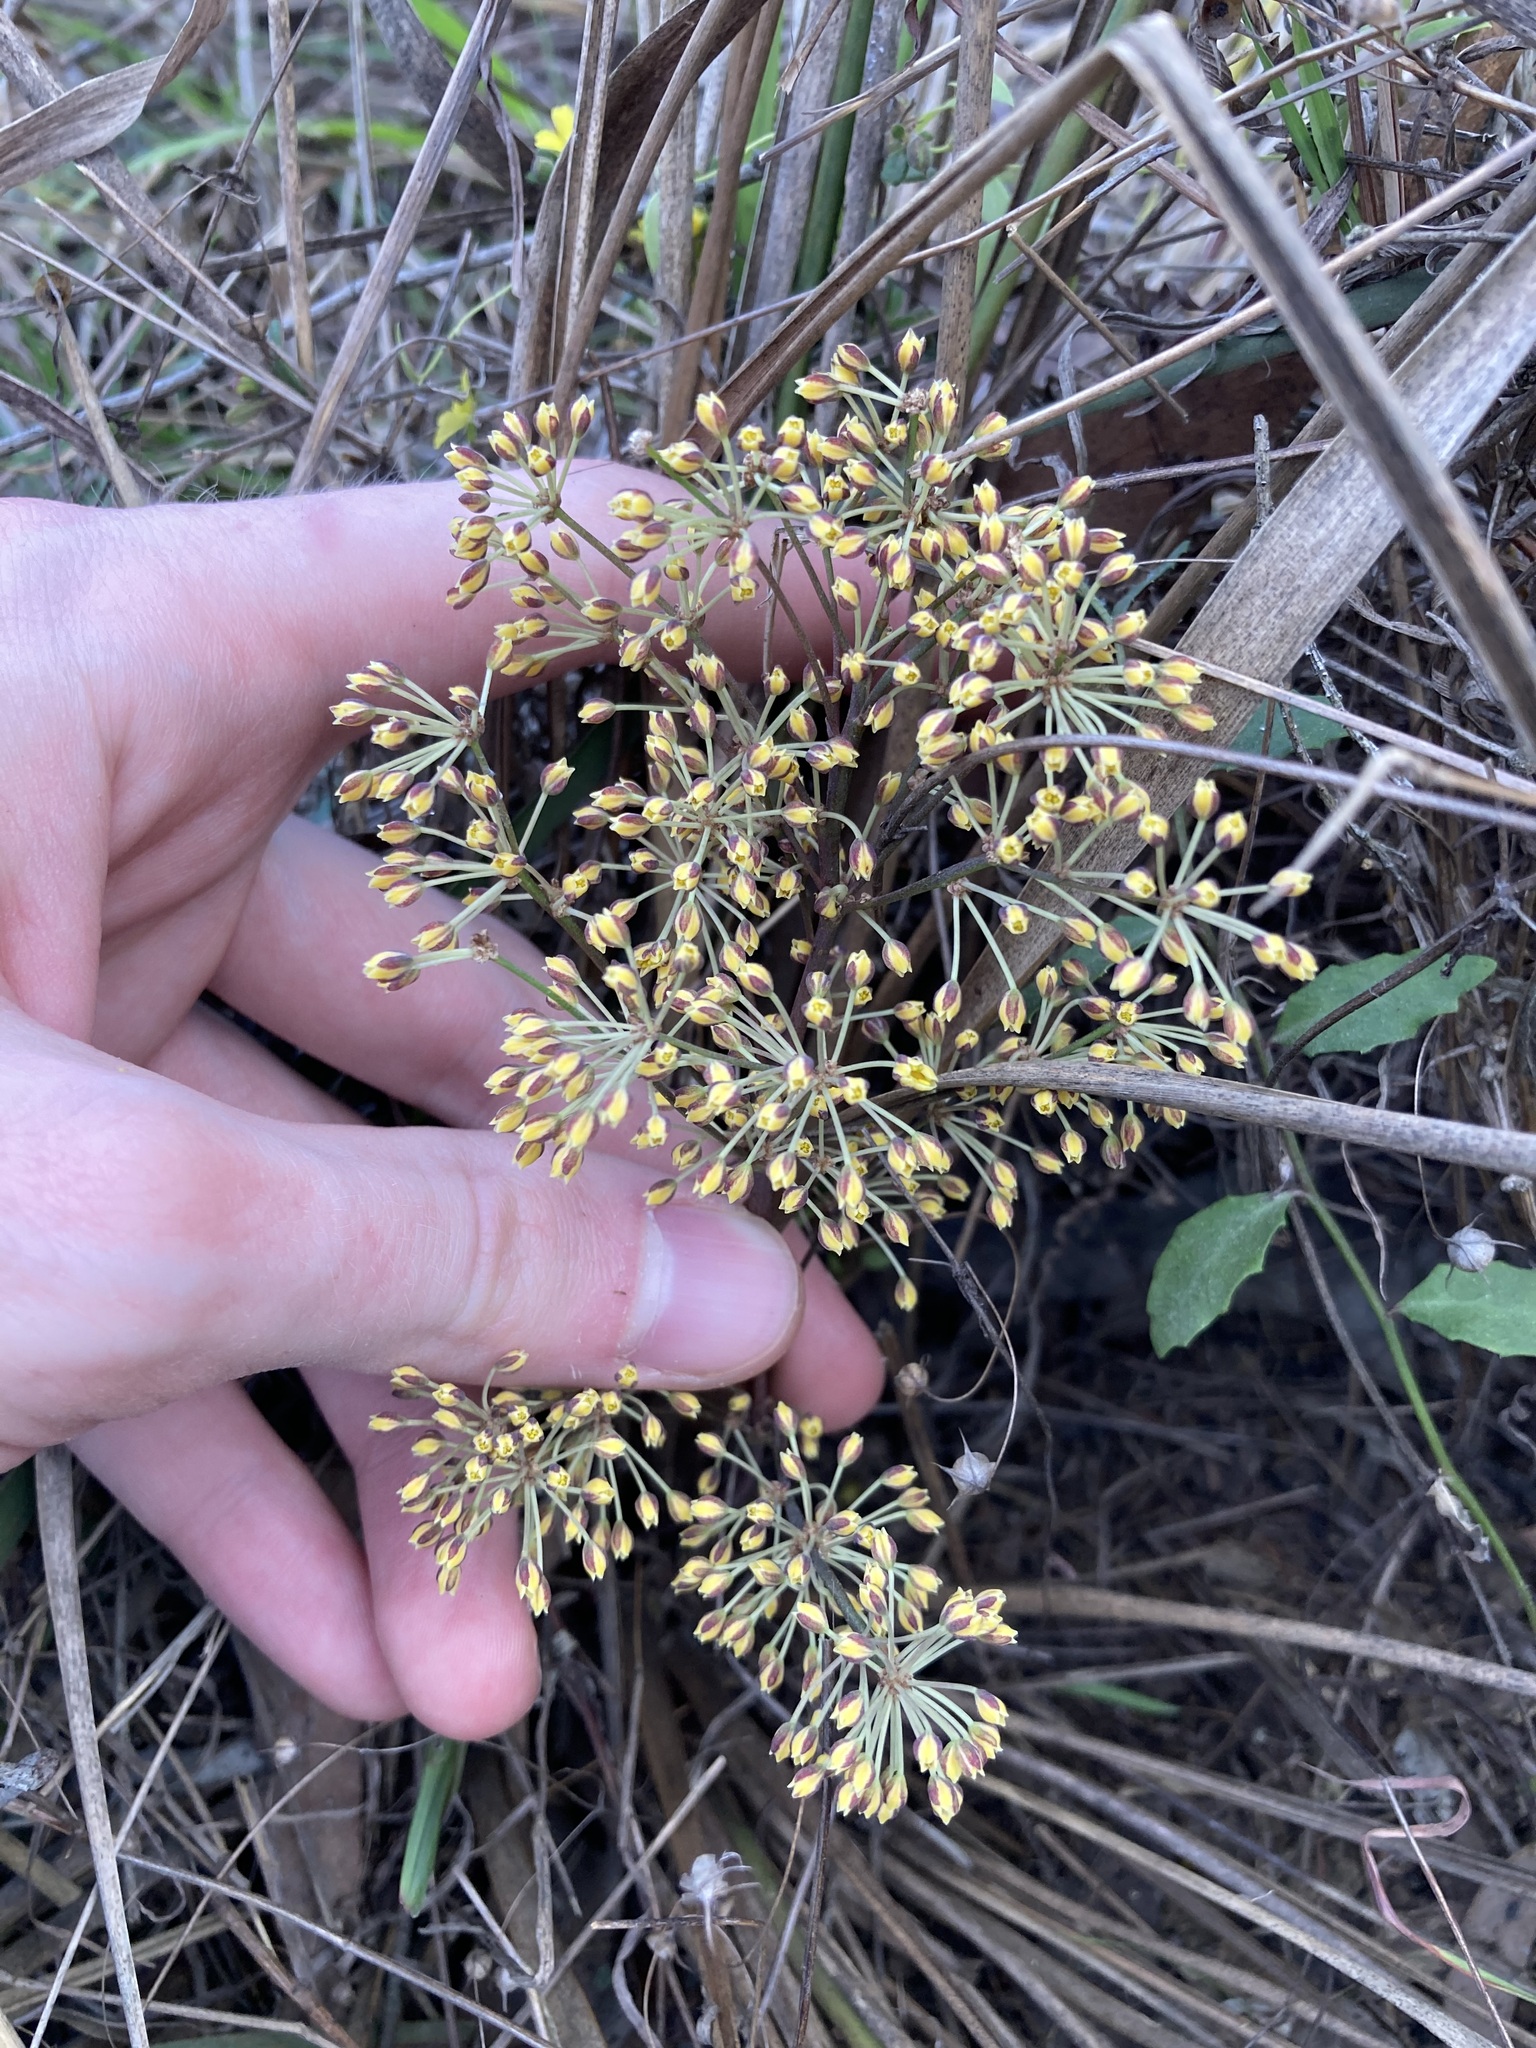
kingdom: Plantae
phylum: Tracheophyta
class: Liliopsida
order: Asparagales
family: Asparagaceae
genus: Lomandra
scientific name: Lomandra multiflora
